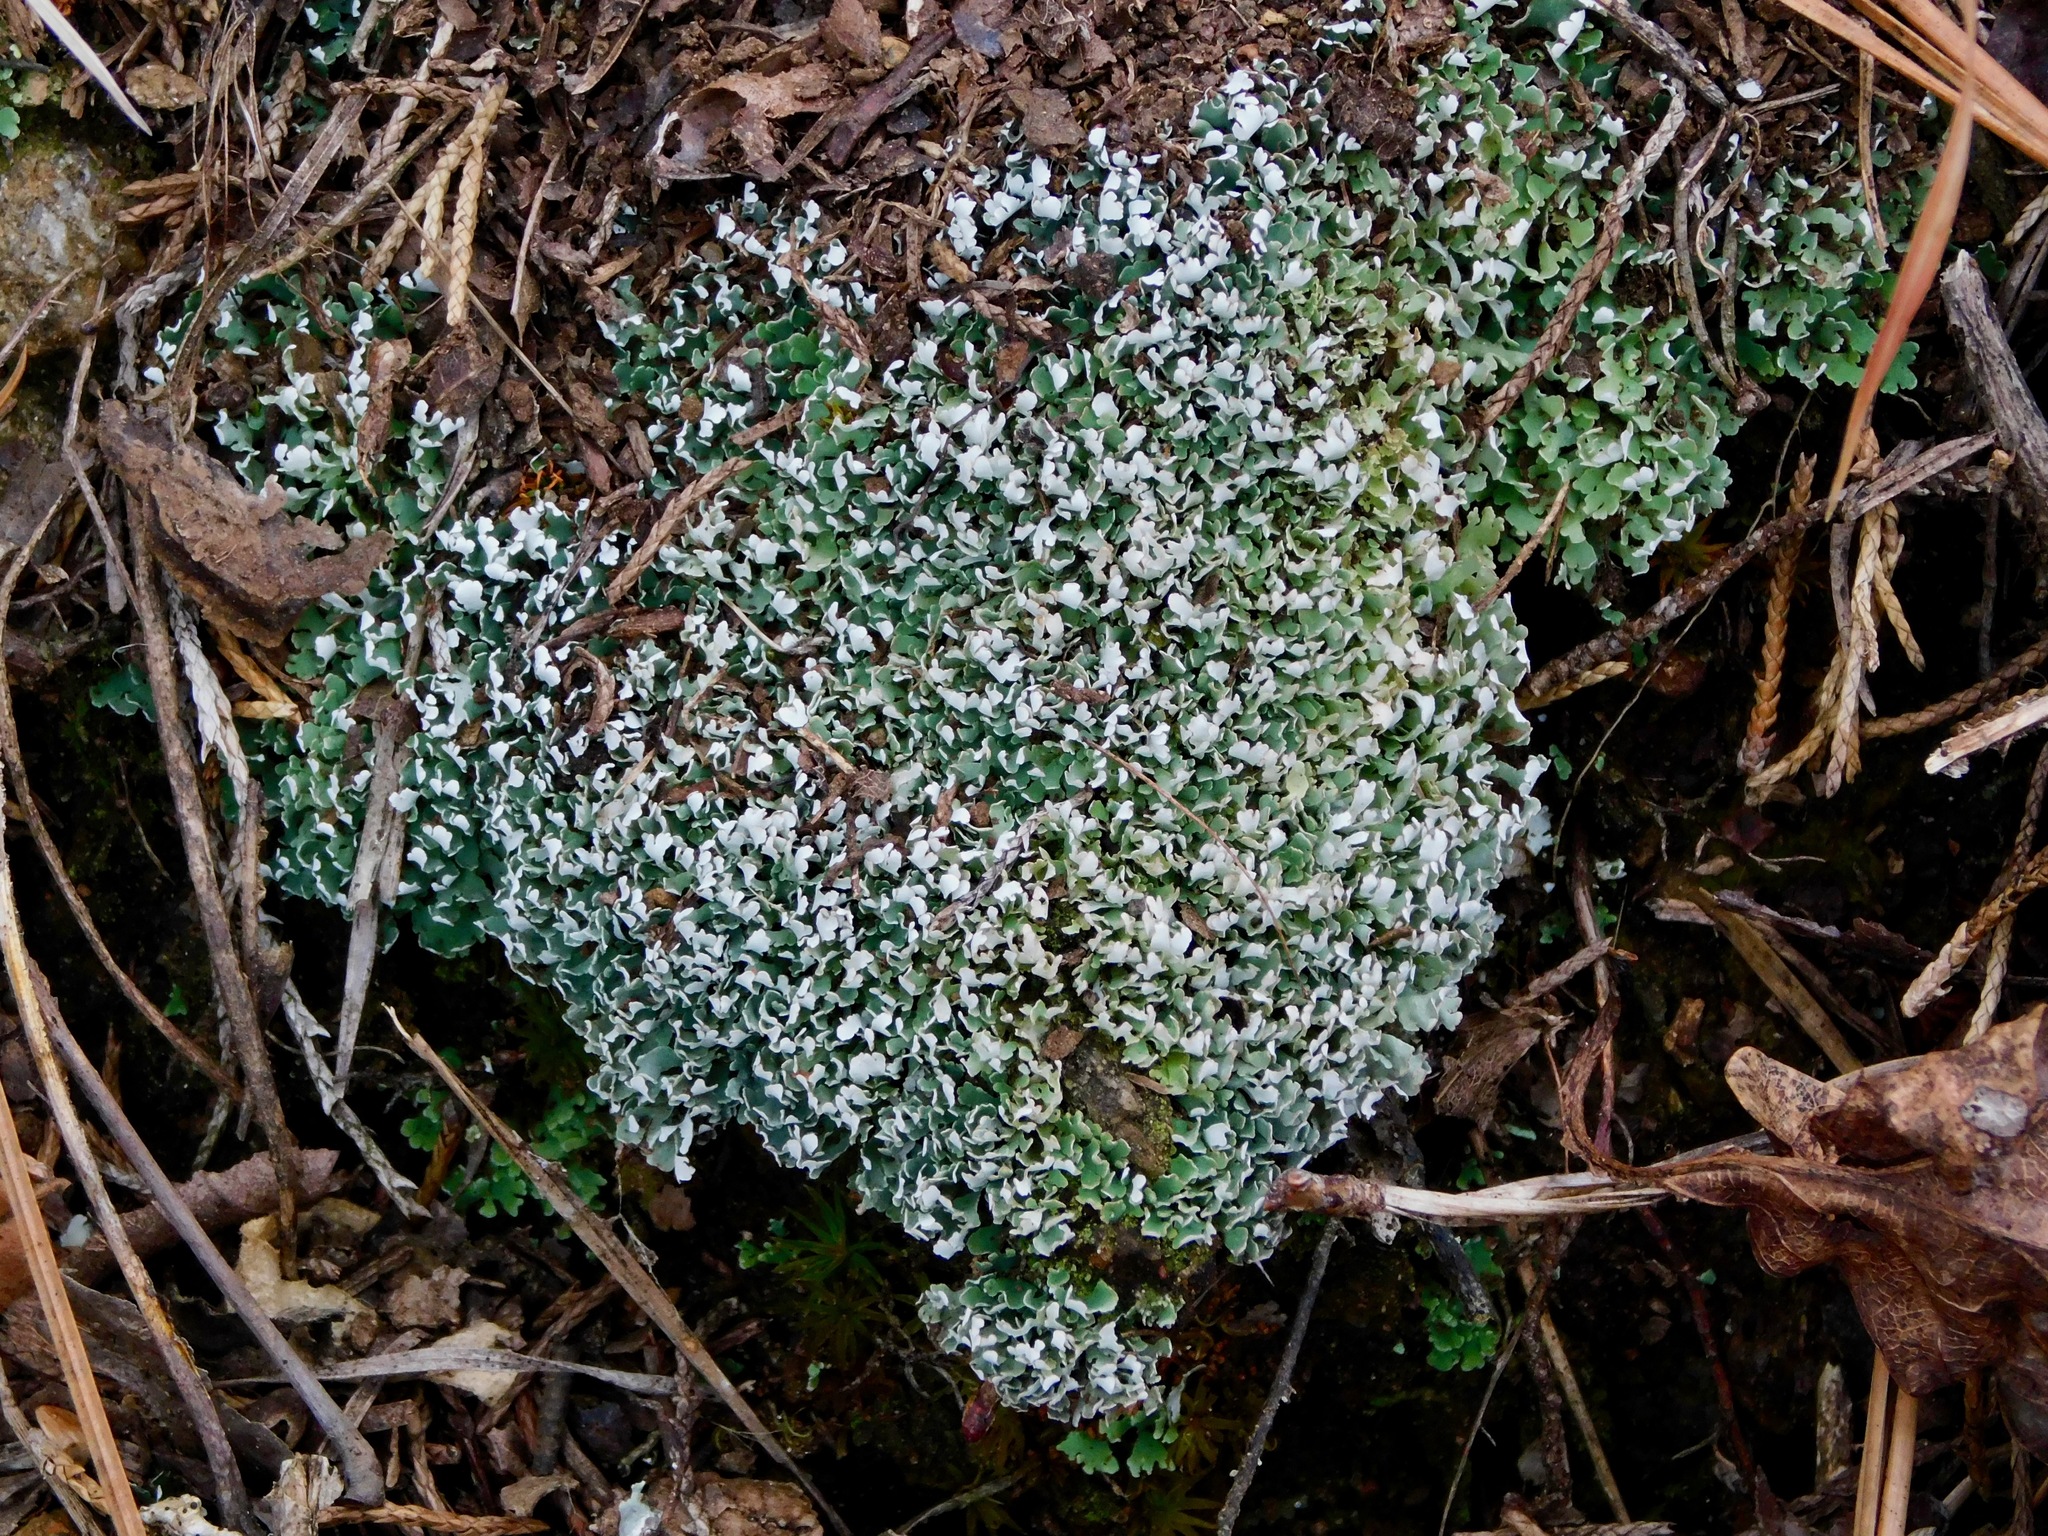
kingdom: Fungi
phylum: Ascomycota
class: Lecanoromycetes
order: Lecanorales
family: Cladoniaceae
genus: Cladonia
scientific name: Cladonia apodocarpa
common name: Stalkless cladonia
